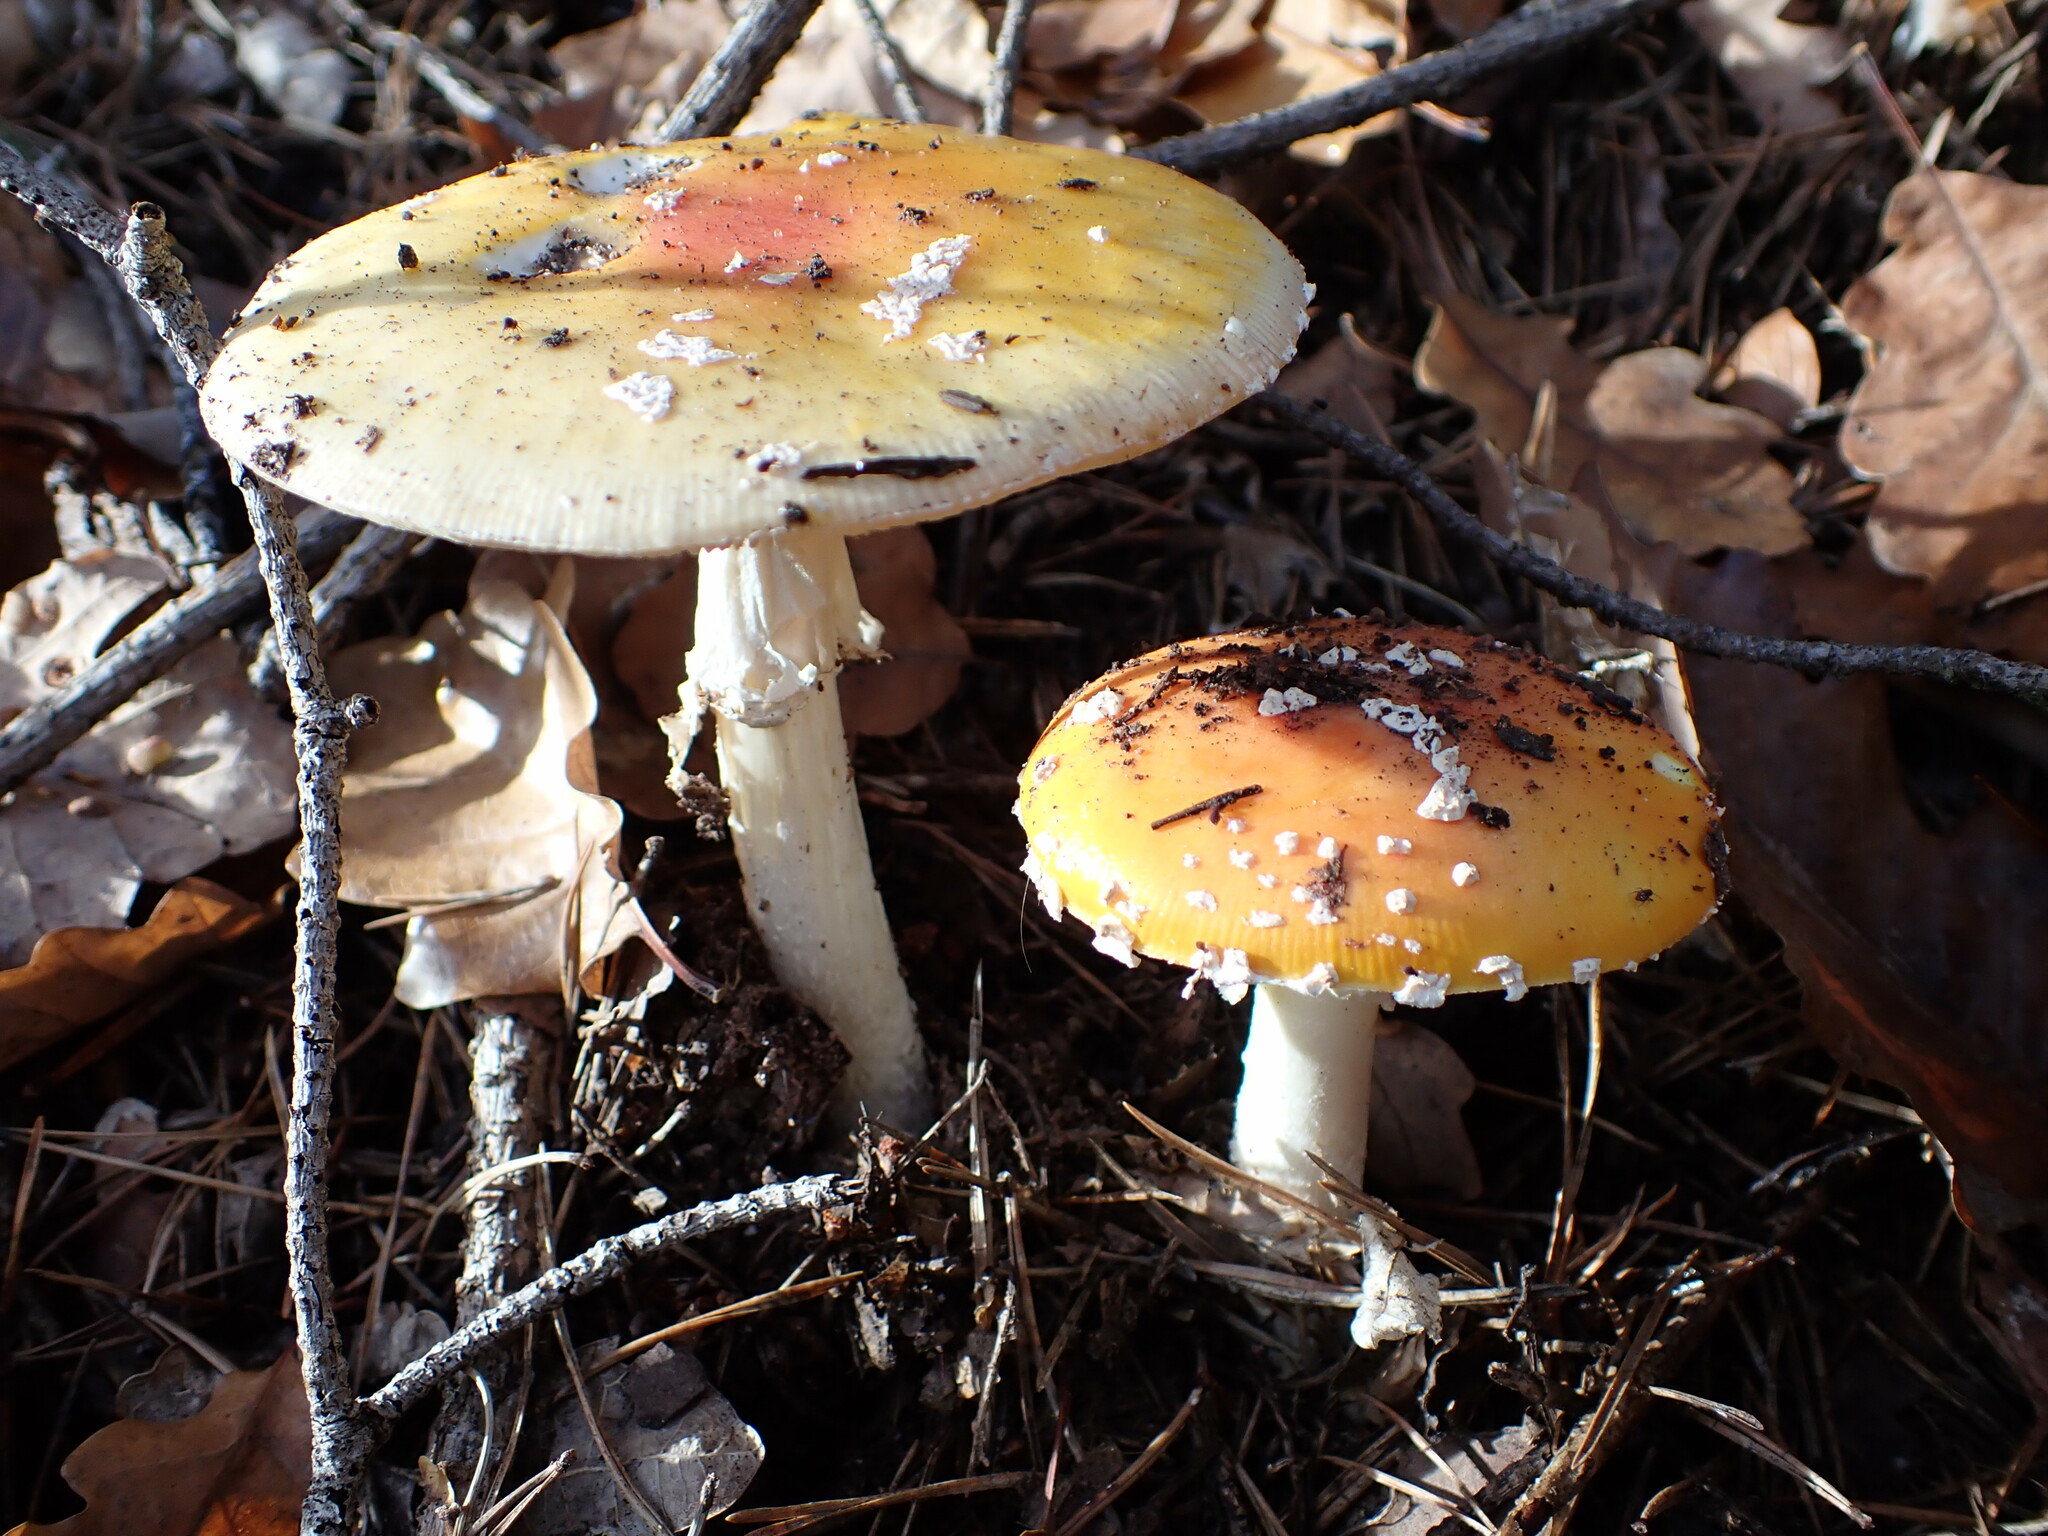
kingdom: Fungi
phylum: Basidiomycota
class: Agaricomycetes
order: Agaricales
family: Amanitaceae
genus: Amanita
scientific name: Amanita muscaria
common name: Fly agaric
